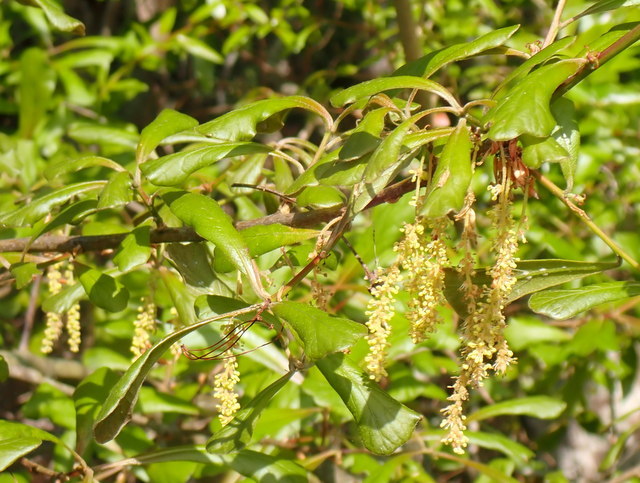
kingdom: Plantae
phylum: Tracheophyta
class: Magnoliopsida
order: Fagales
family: Fagaceae
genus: Quercus
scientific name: Quercus nigra
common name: Water oak
